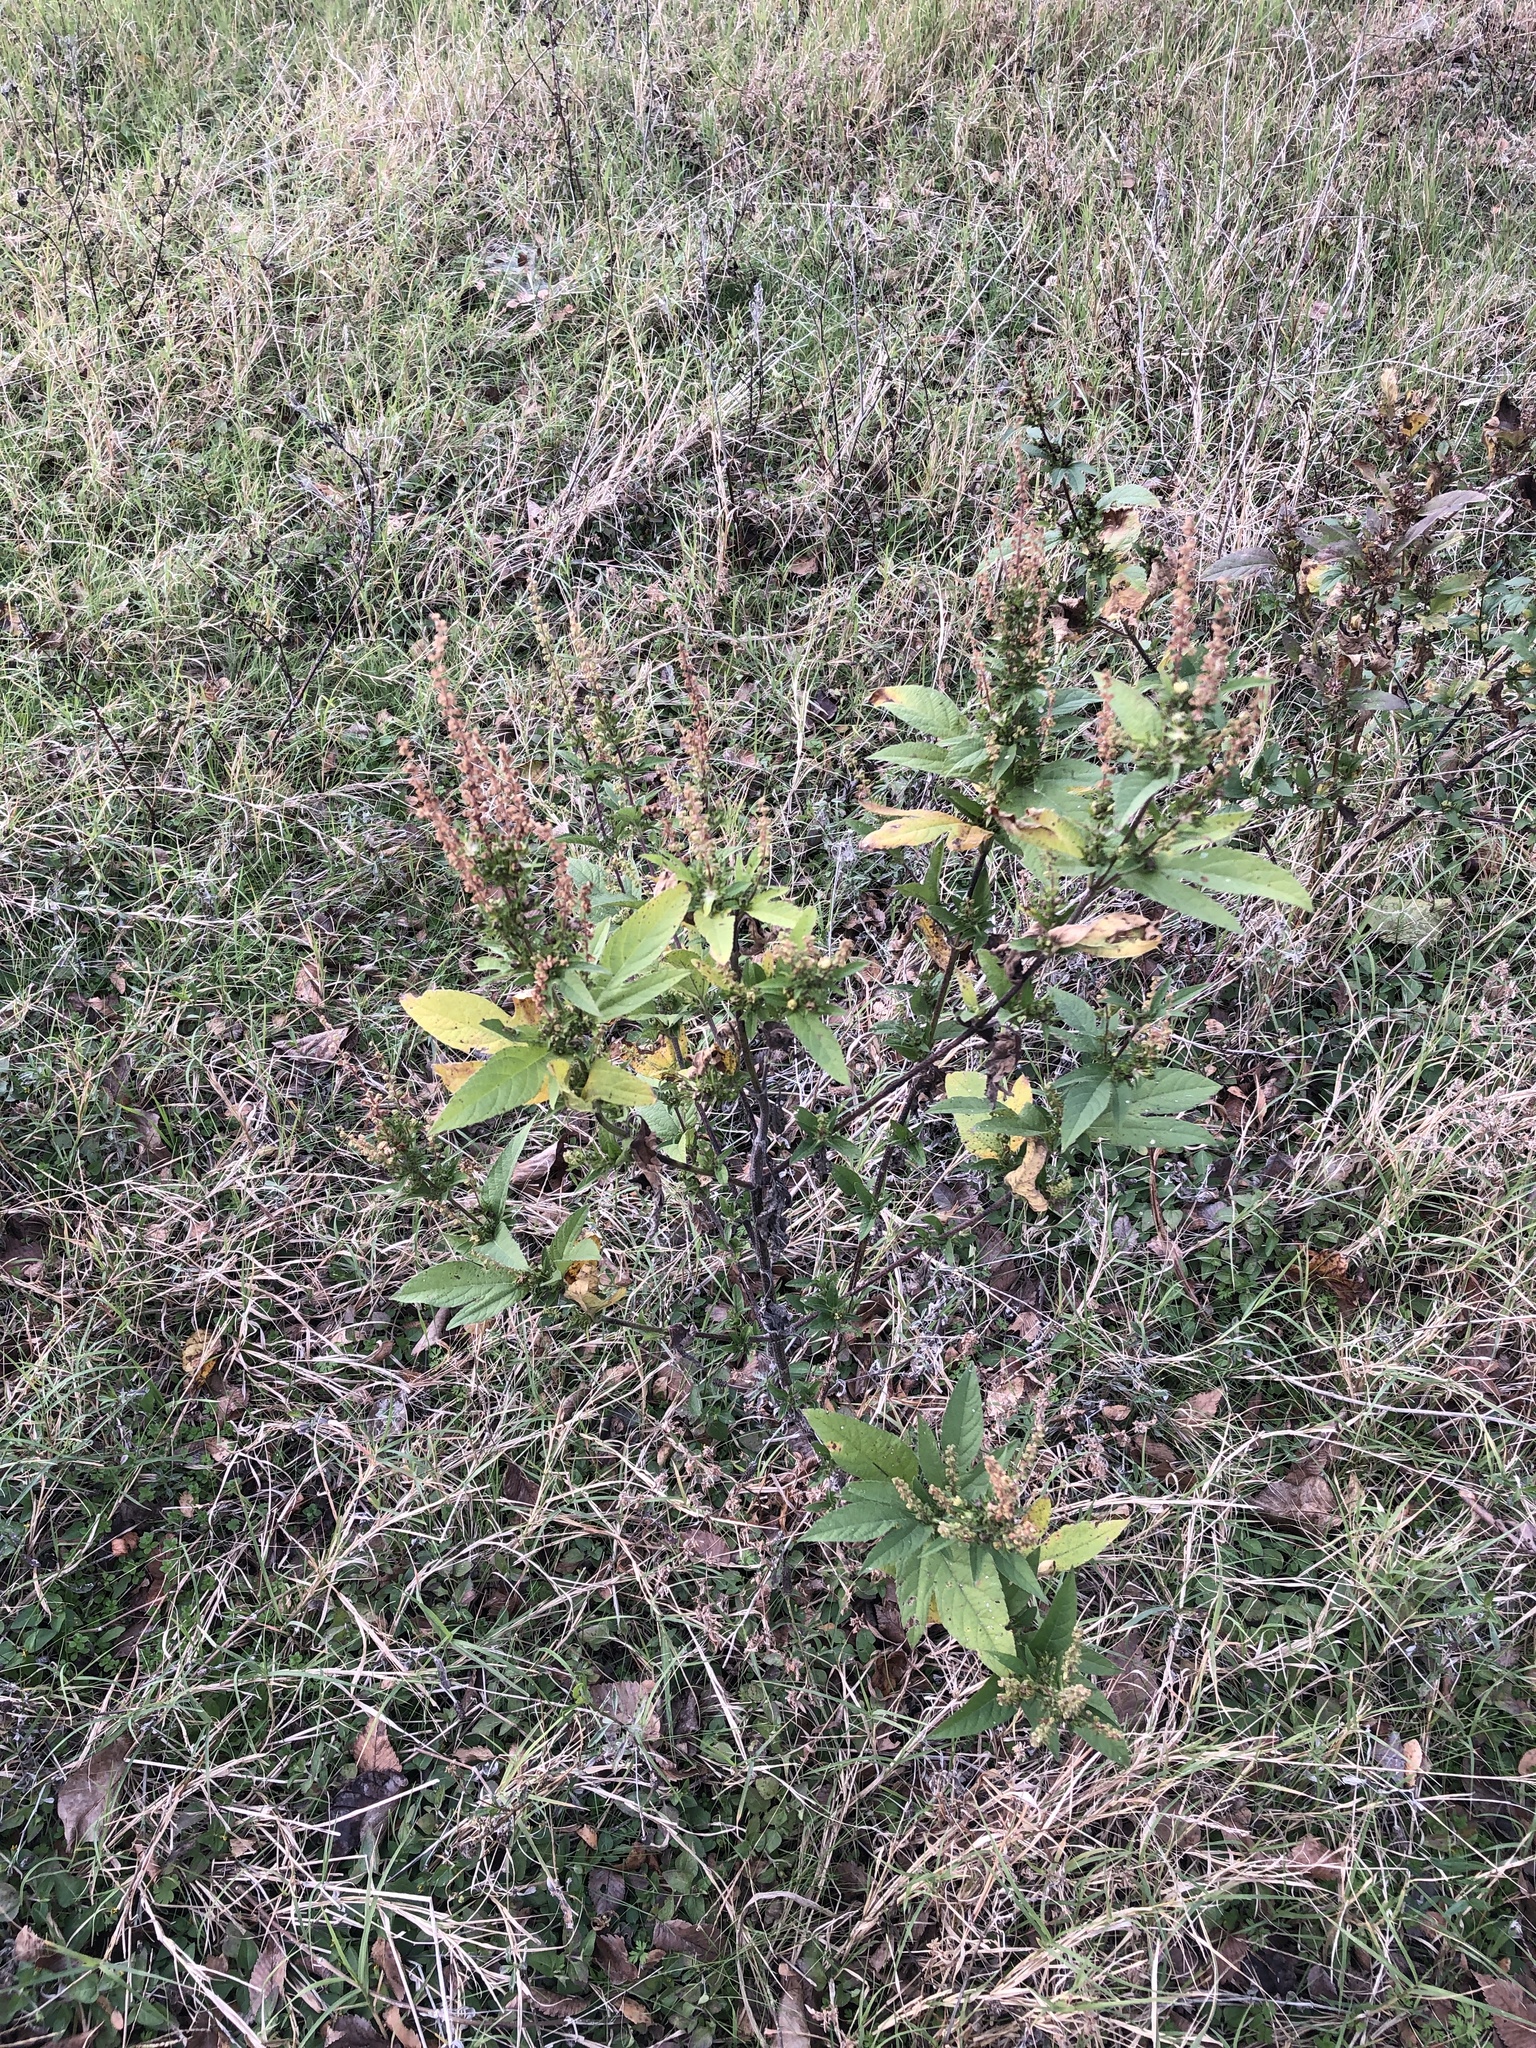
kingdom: Plantae
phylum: Tracheophyta
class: Magnoliopsida
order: Asterales
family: Asteraceae
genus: Ambrosia
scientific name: Ambrosia trifida
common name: Giant ragweed
